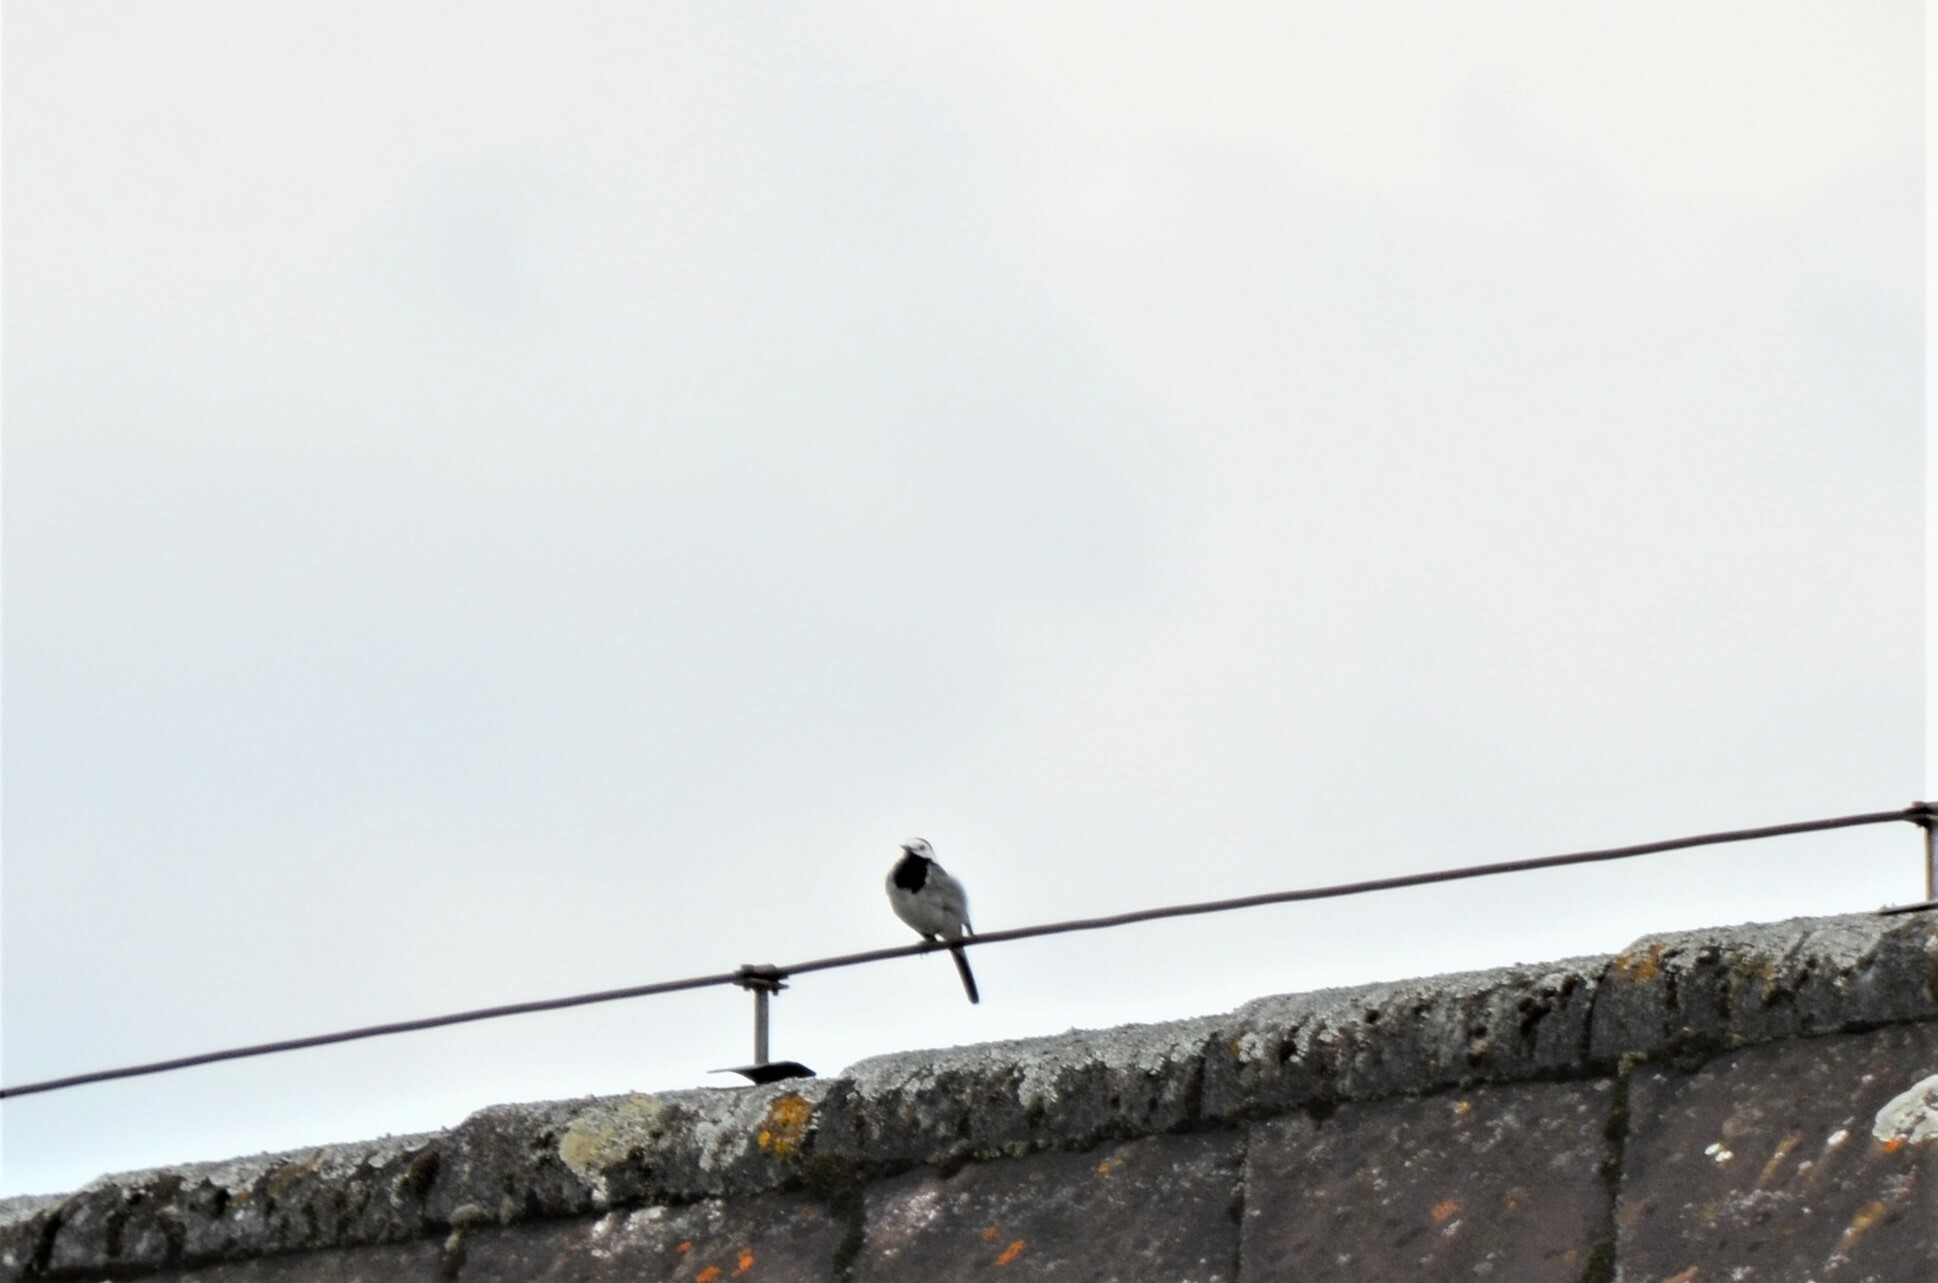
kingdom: Animalia
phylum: Chordata
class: Aves
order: Passeriformes
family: Motacillidae
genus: Motacilla
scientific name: Motacilla alba
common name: White wagtail
